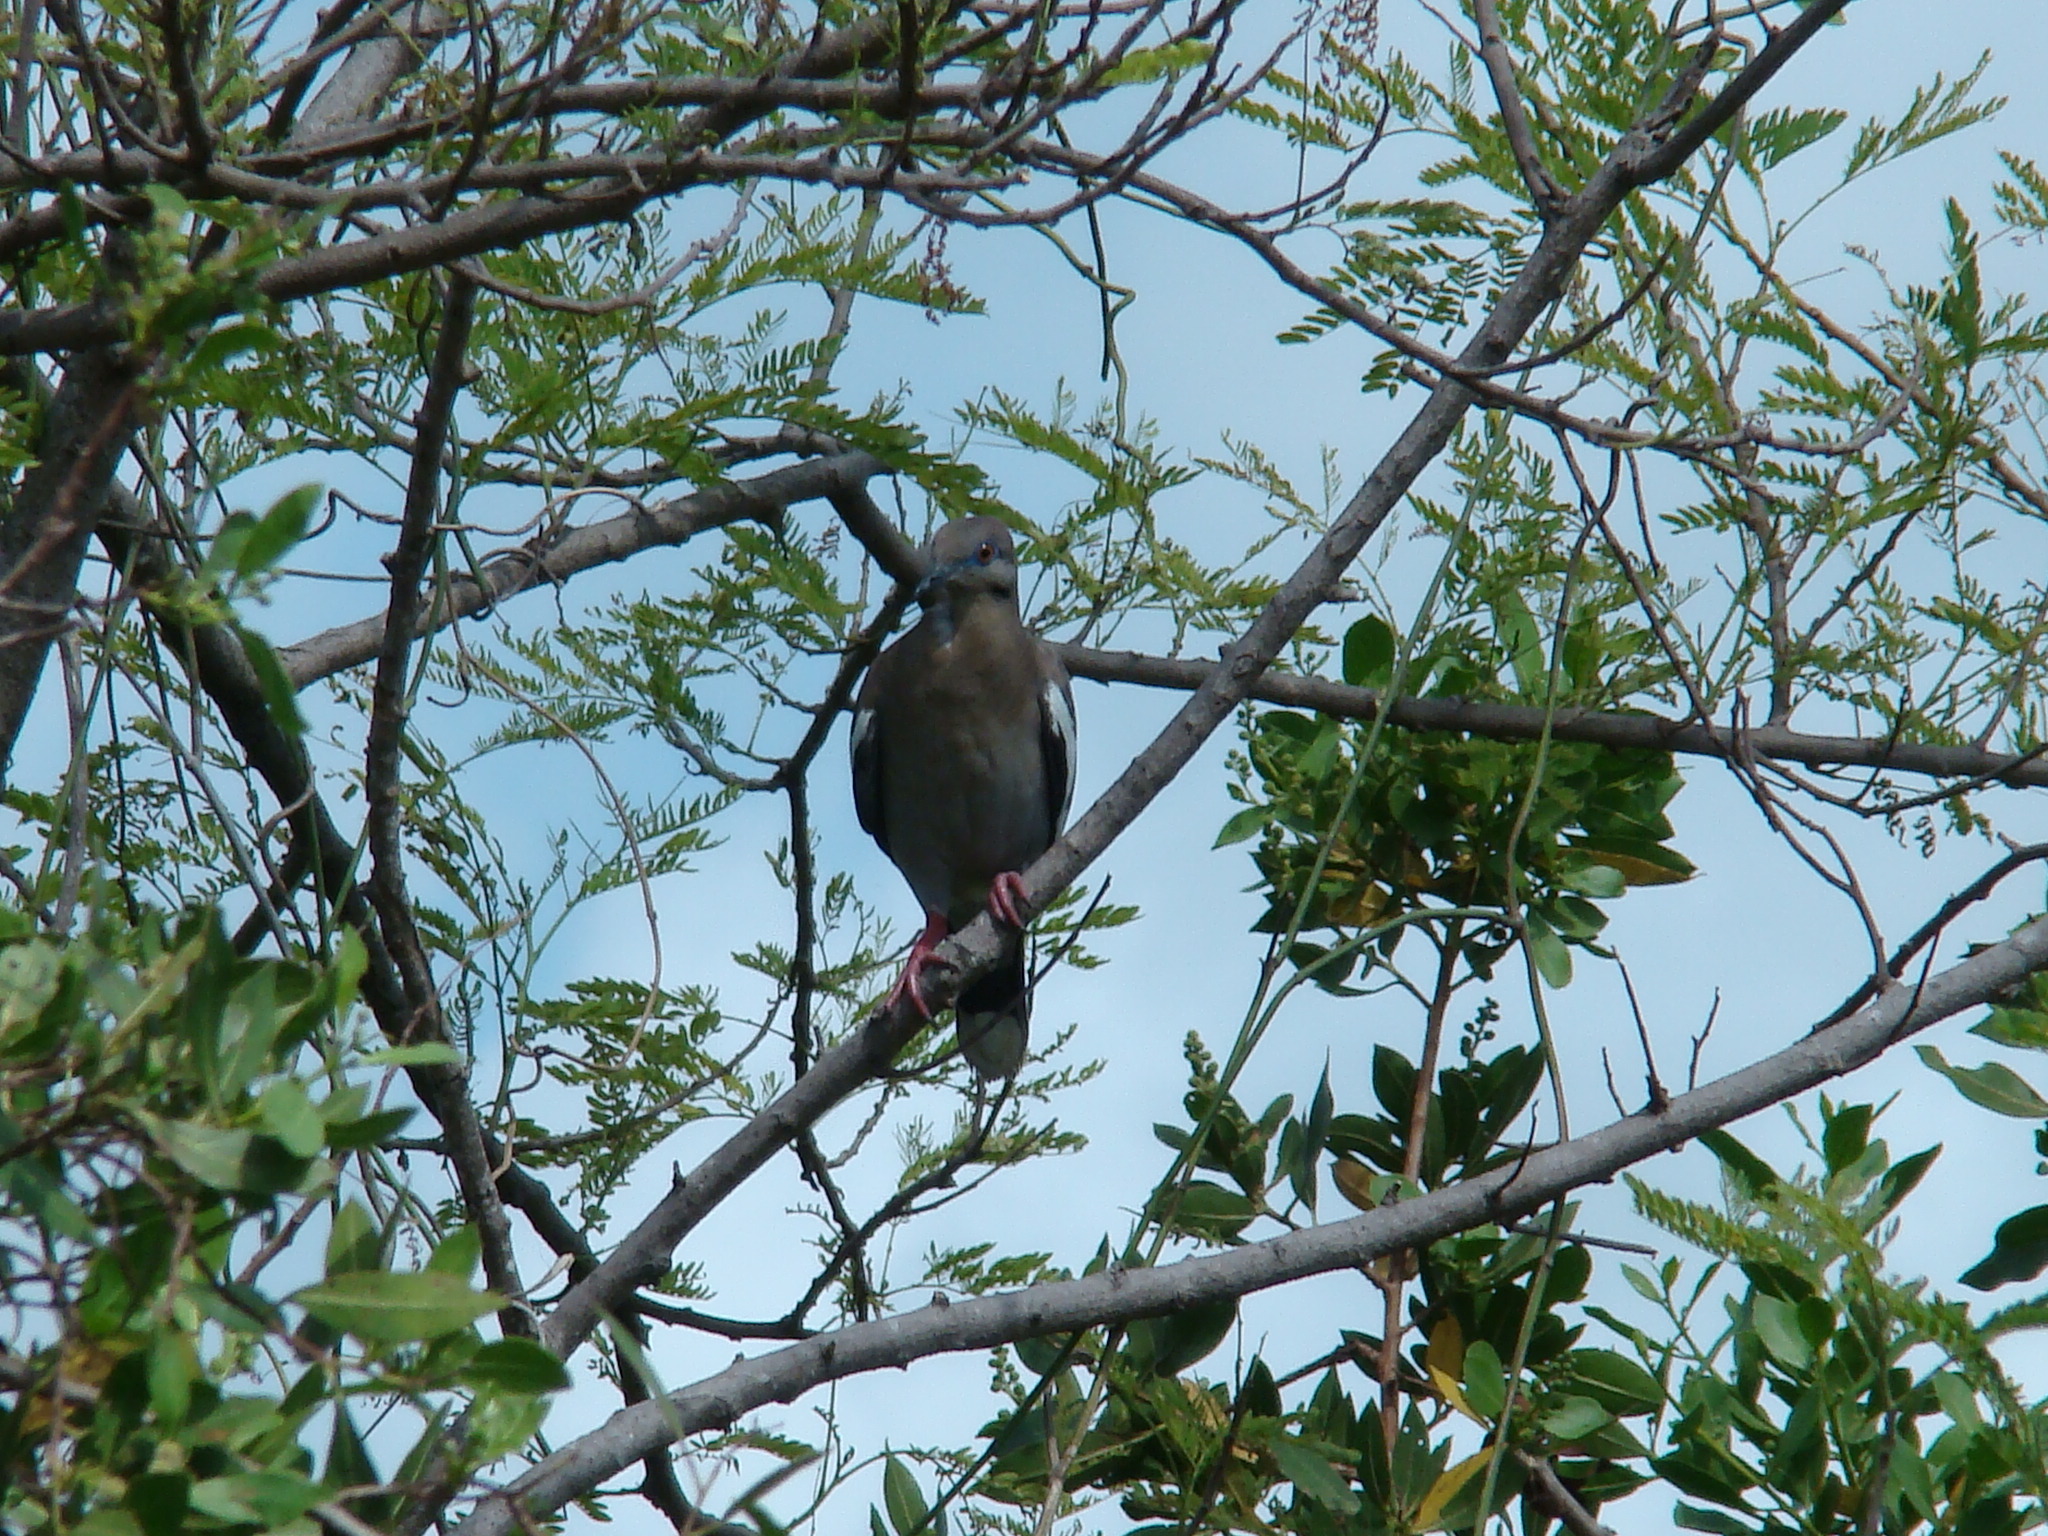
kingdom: Animalia
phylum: Chordata
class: Aves
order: Columbiformes
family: Columbidae
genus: Zenaida
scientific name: Zenaida asiatica
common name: White-winged dove
